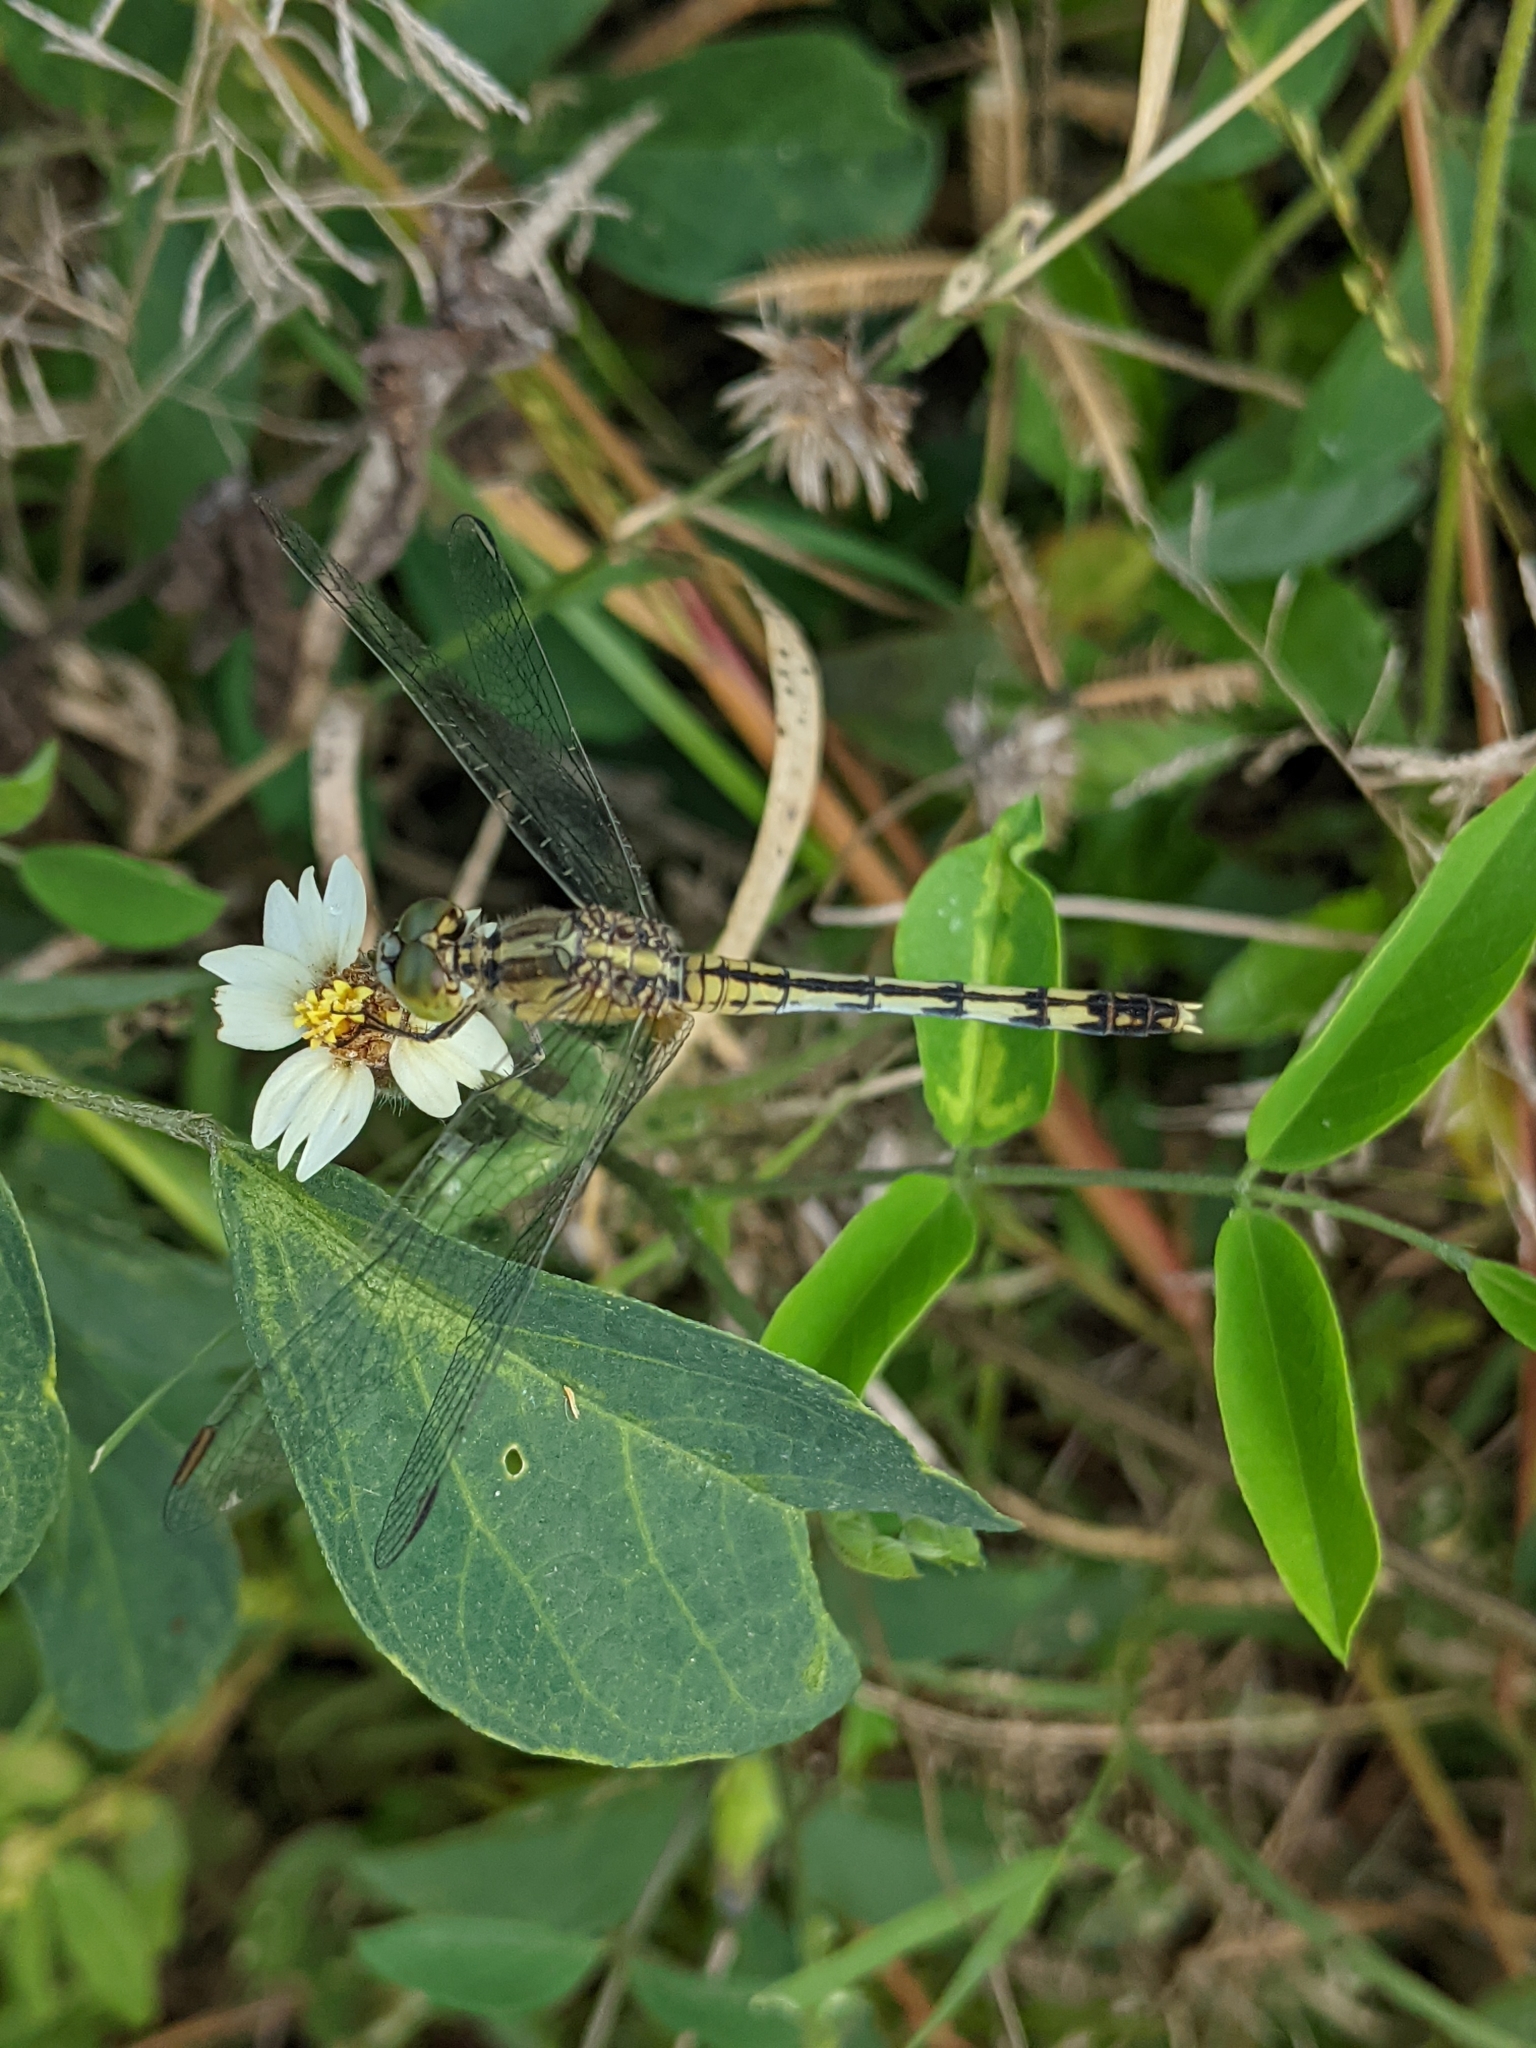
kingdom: Animalia
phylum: Arthropoda
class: Insecta
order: Odonata
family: Libellulidae
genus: Diplacodes
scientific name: Diplacodes trivialis
